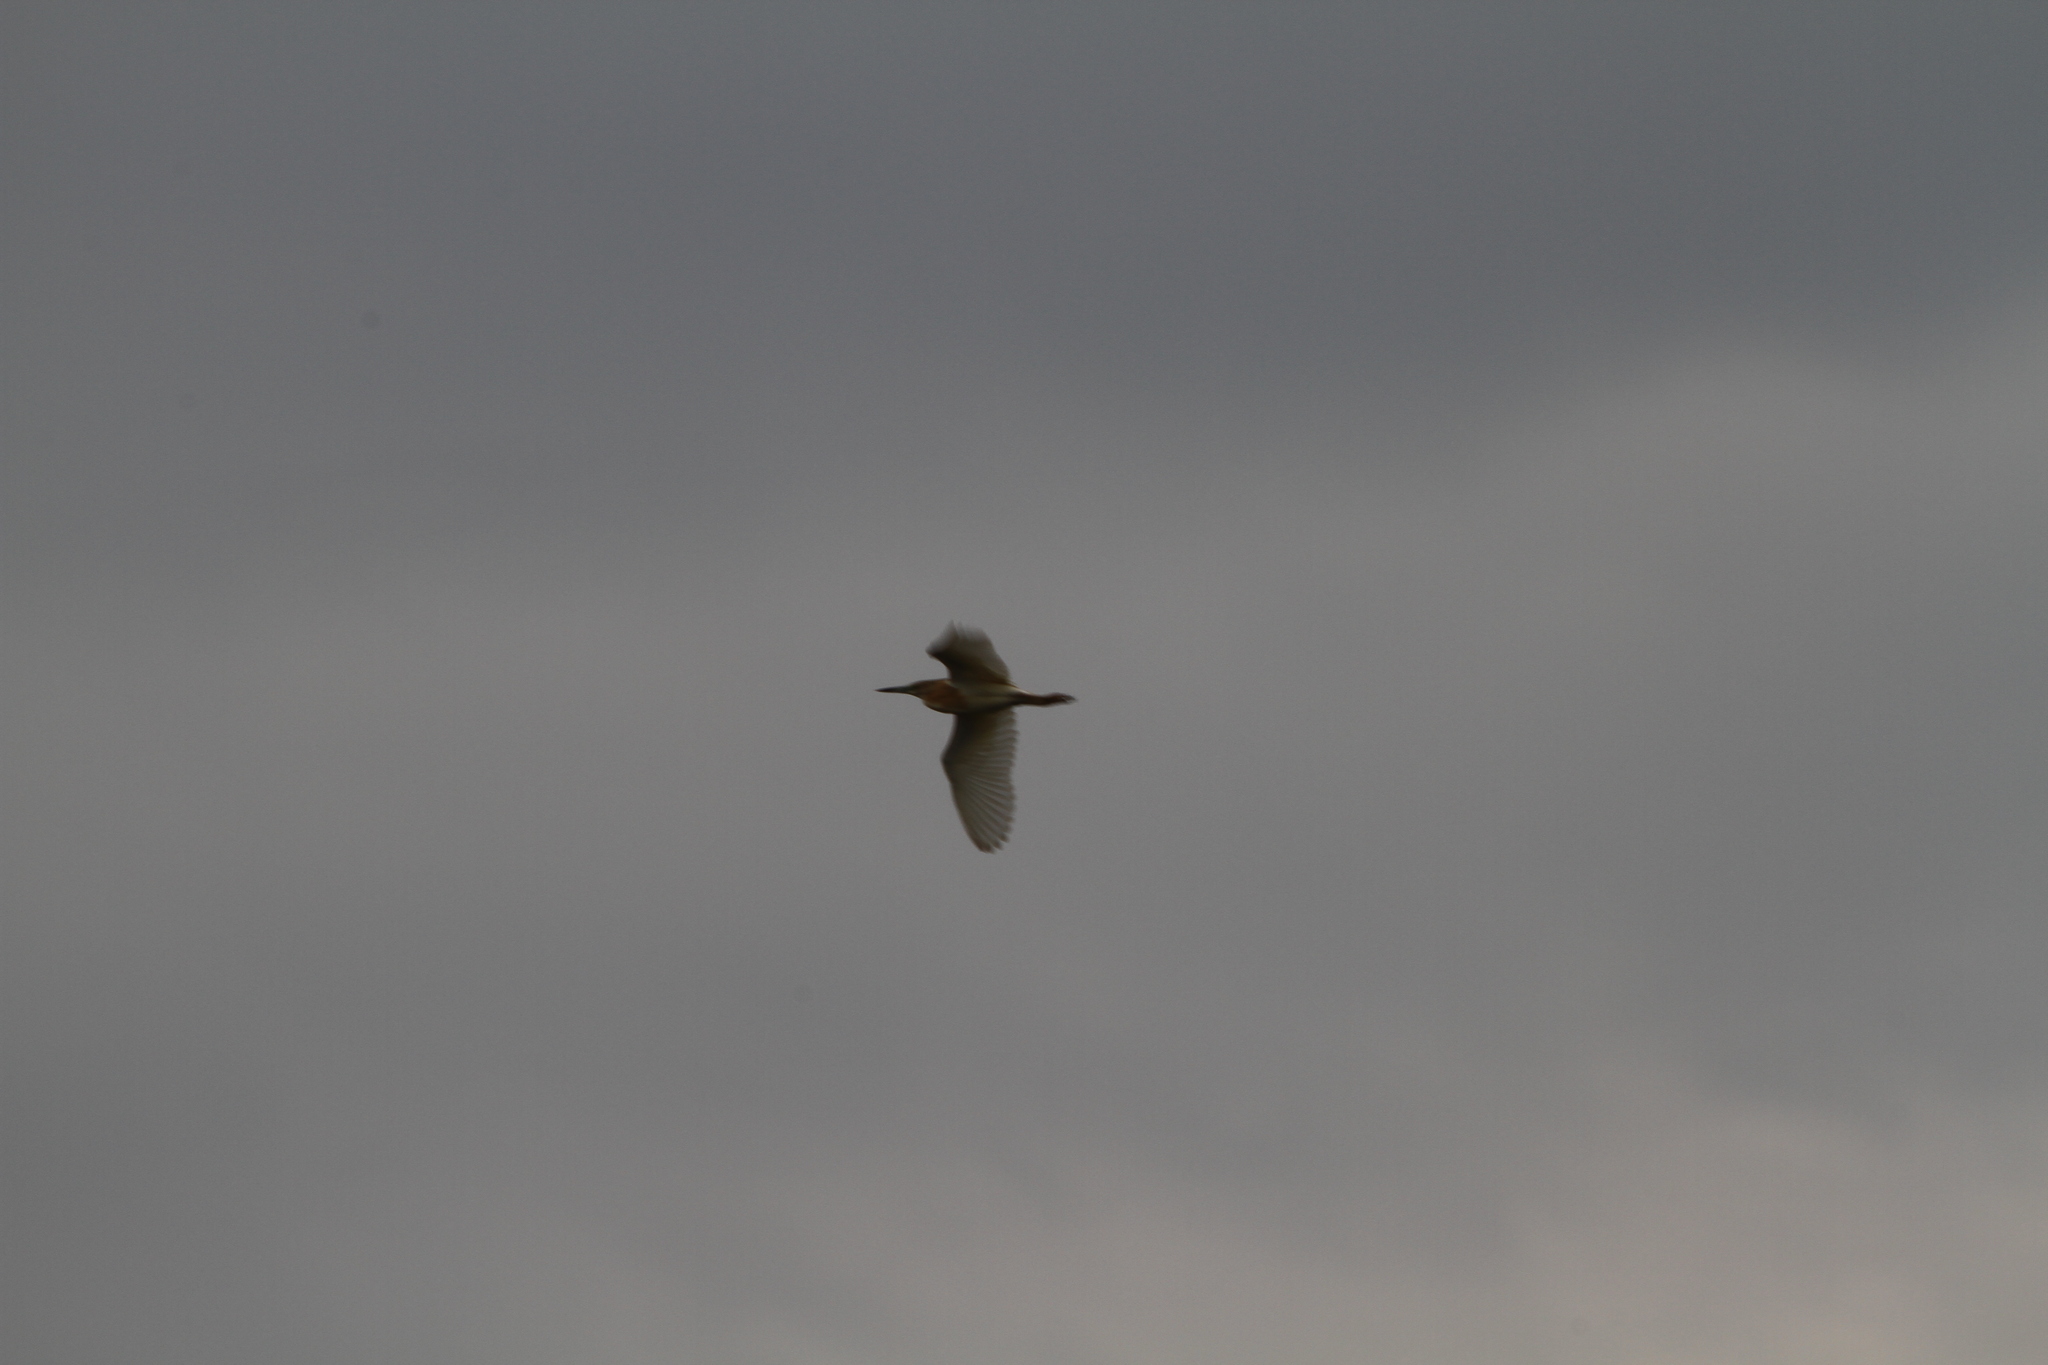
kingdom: Animalia
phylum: Chordata
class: Aves
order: Pelecaniformes
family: Ardeidae
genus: Ardeola
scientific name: Ardeola ralloides
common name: Squacco heron
